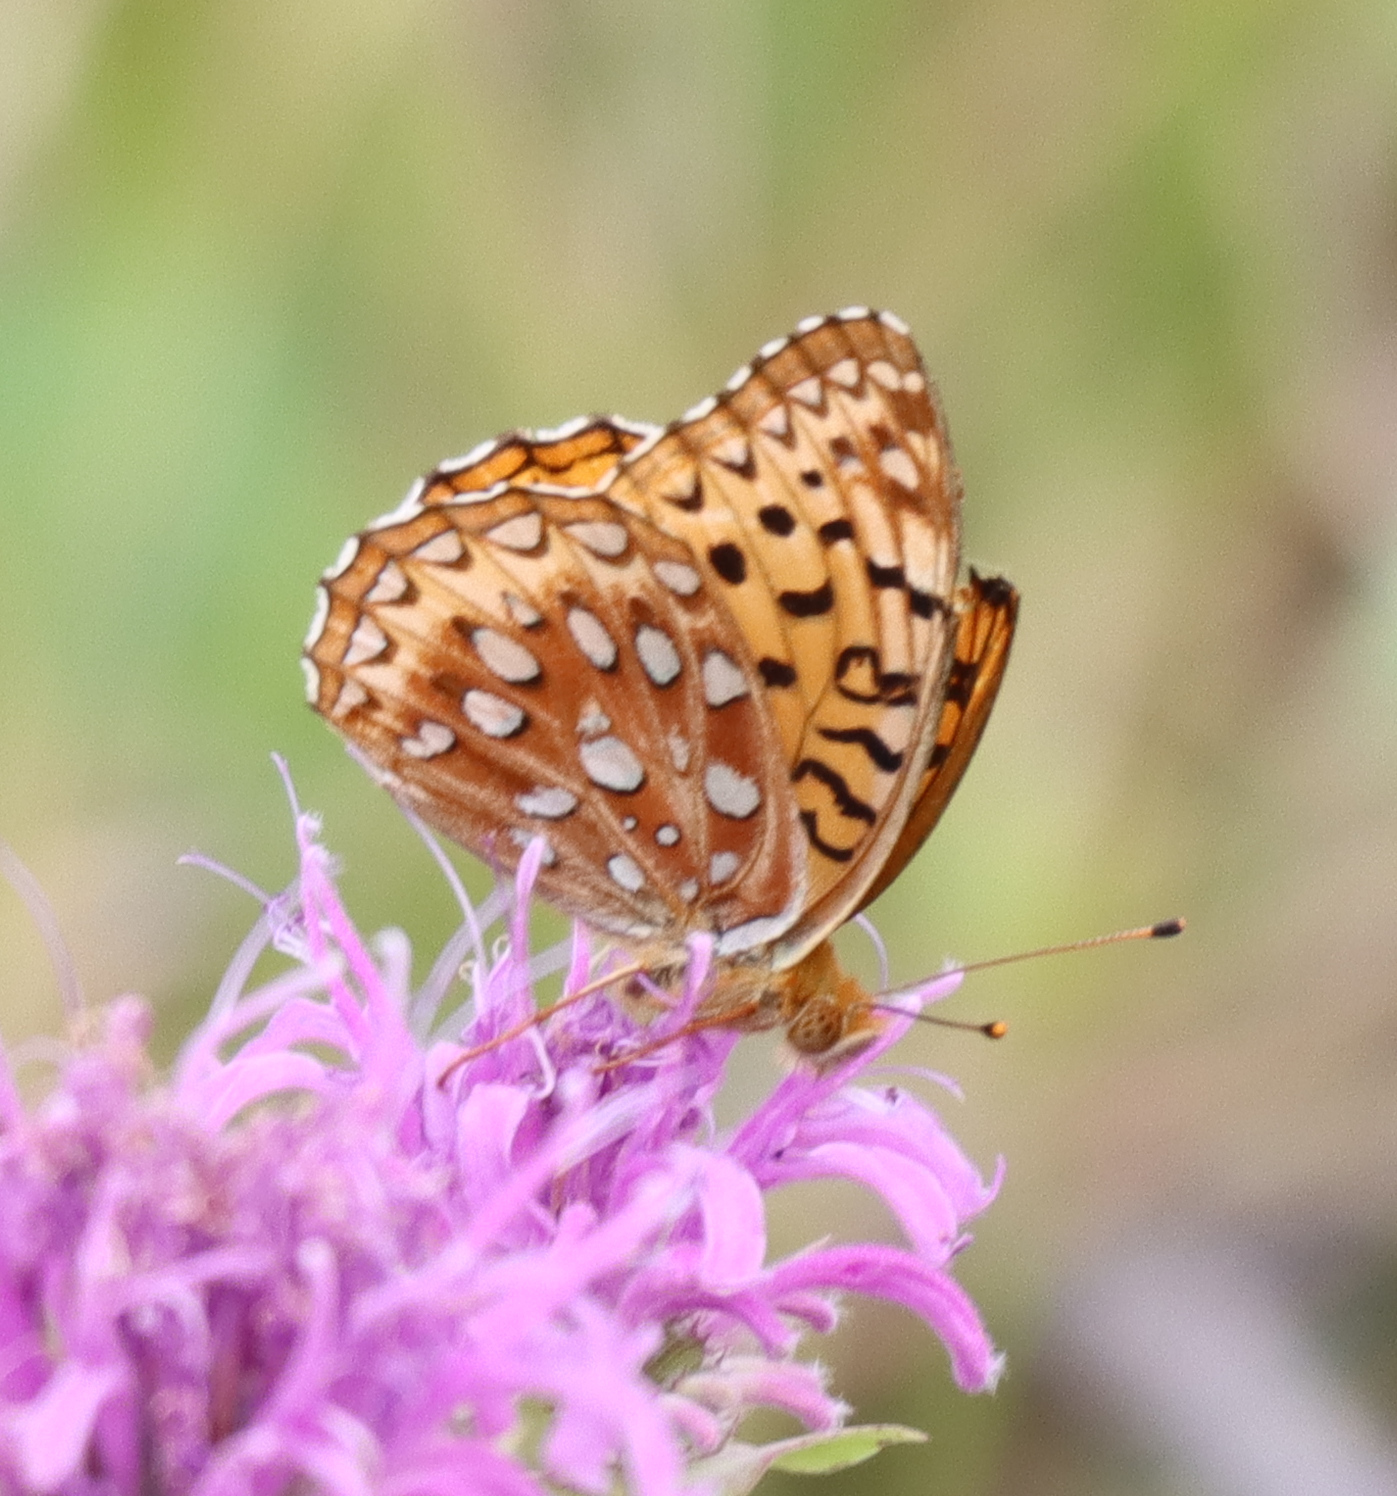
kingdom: Animalia
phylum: Arthropoda
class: Insecta
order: Lepidoptera
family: Nymphalidae
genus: Speyeria
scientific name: Speyeria aphrodite
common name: Aphrodite friitllary
